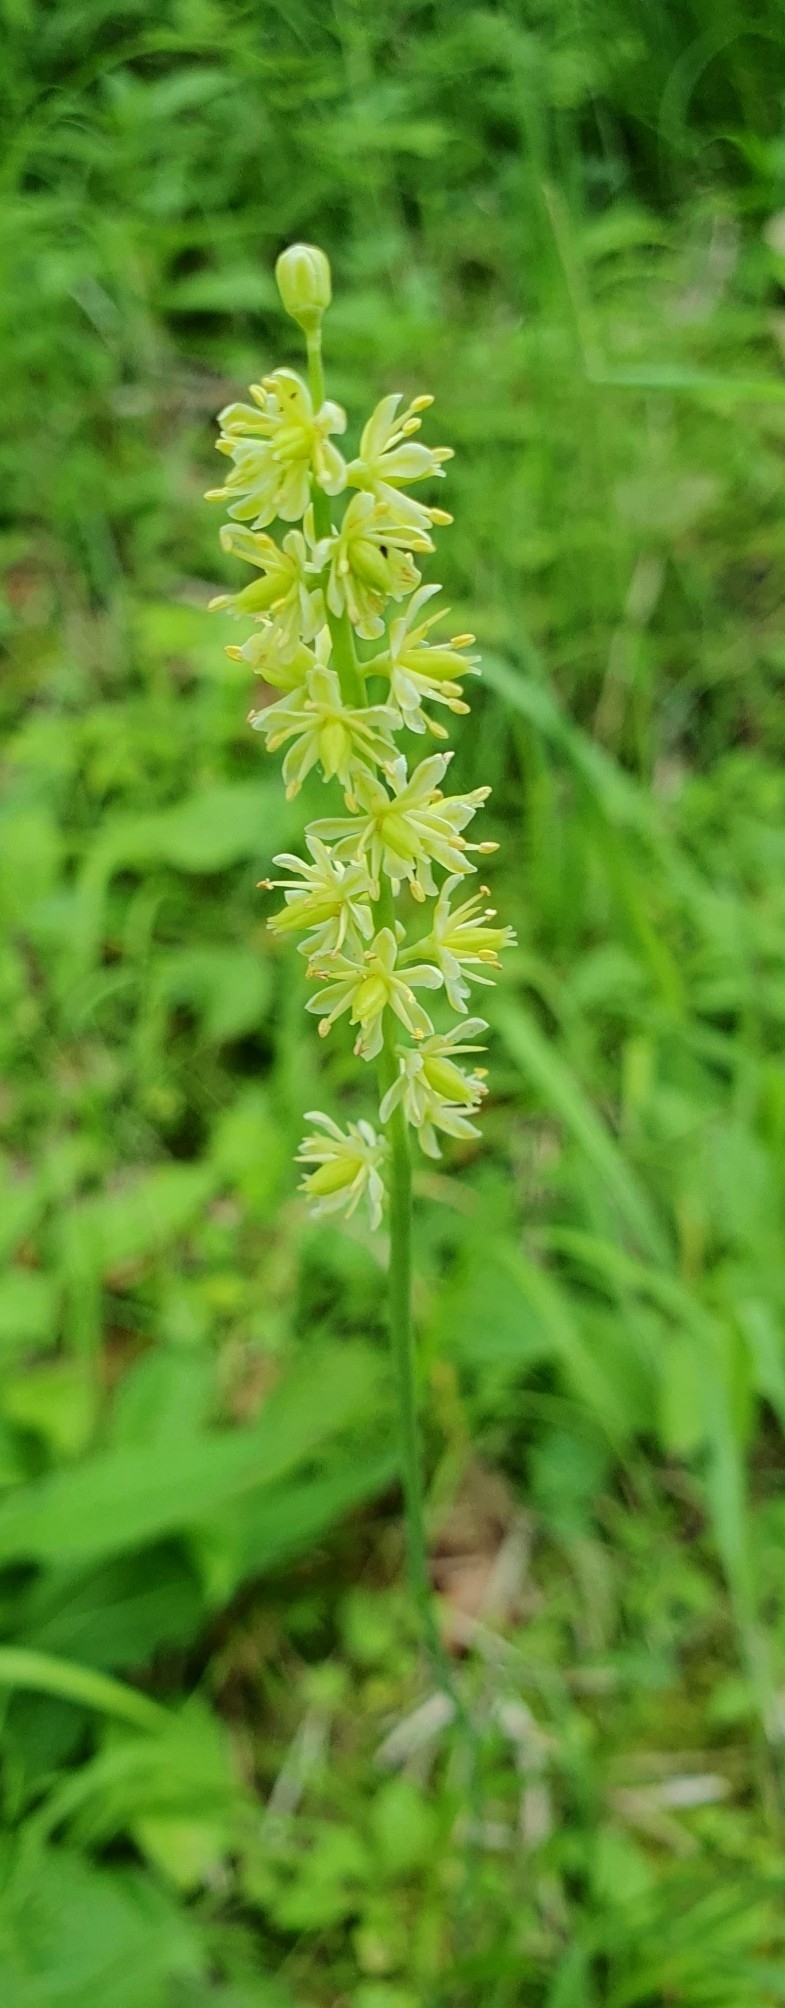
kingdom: Plantae
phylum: Tracheophyta
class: Liliopsida
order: Alismatales
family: Tofieldiaceae
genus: Tofieldia
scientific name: Tofieldia calyculata
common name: German-asphodel
